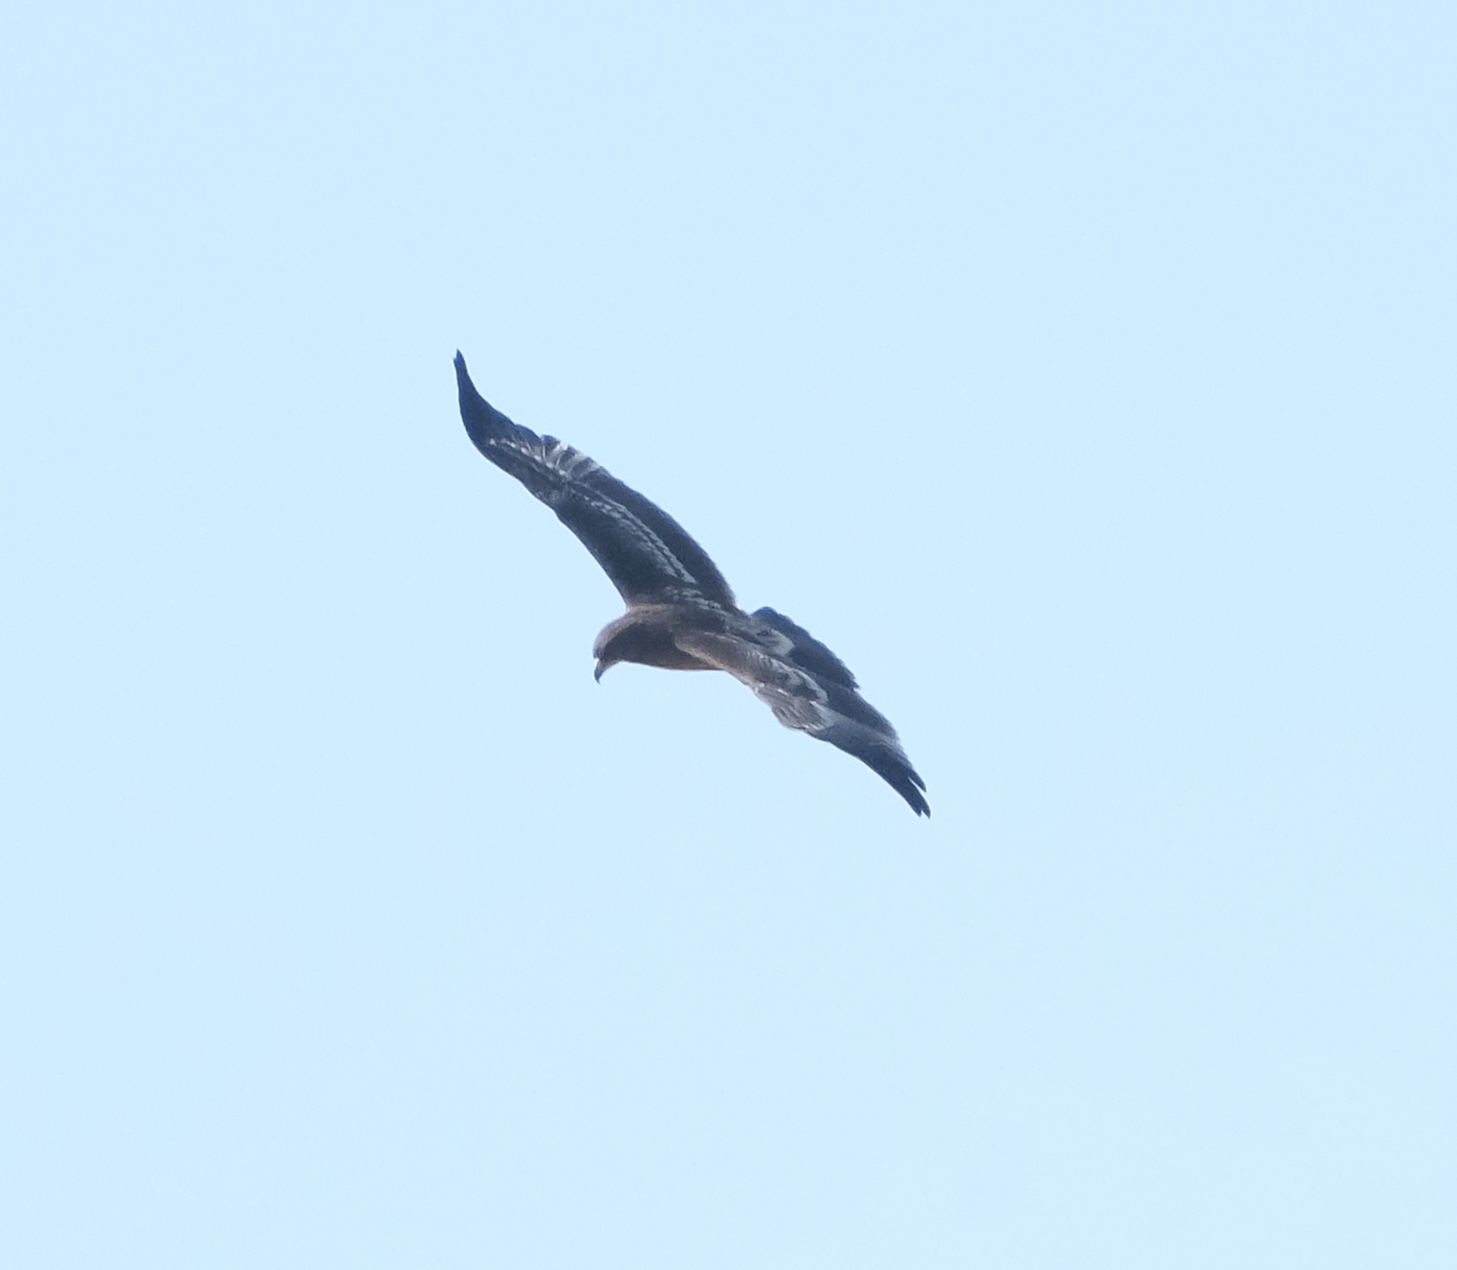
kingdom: Animalia
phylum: Chordata
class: Aves
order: Accipitriformes
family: Accipitridae
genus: Aquila
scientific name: Aquila clanga
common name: Greater spotted eagle
